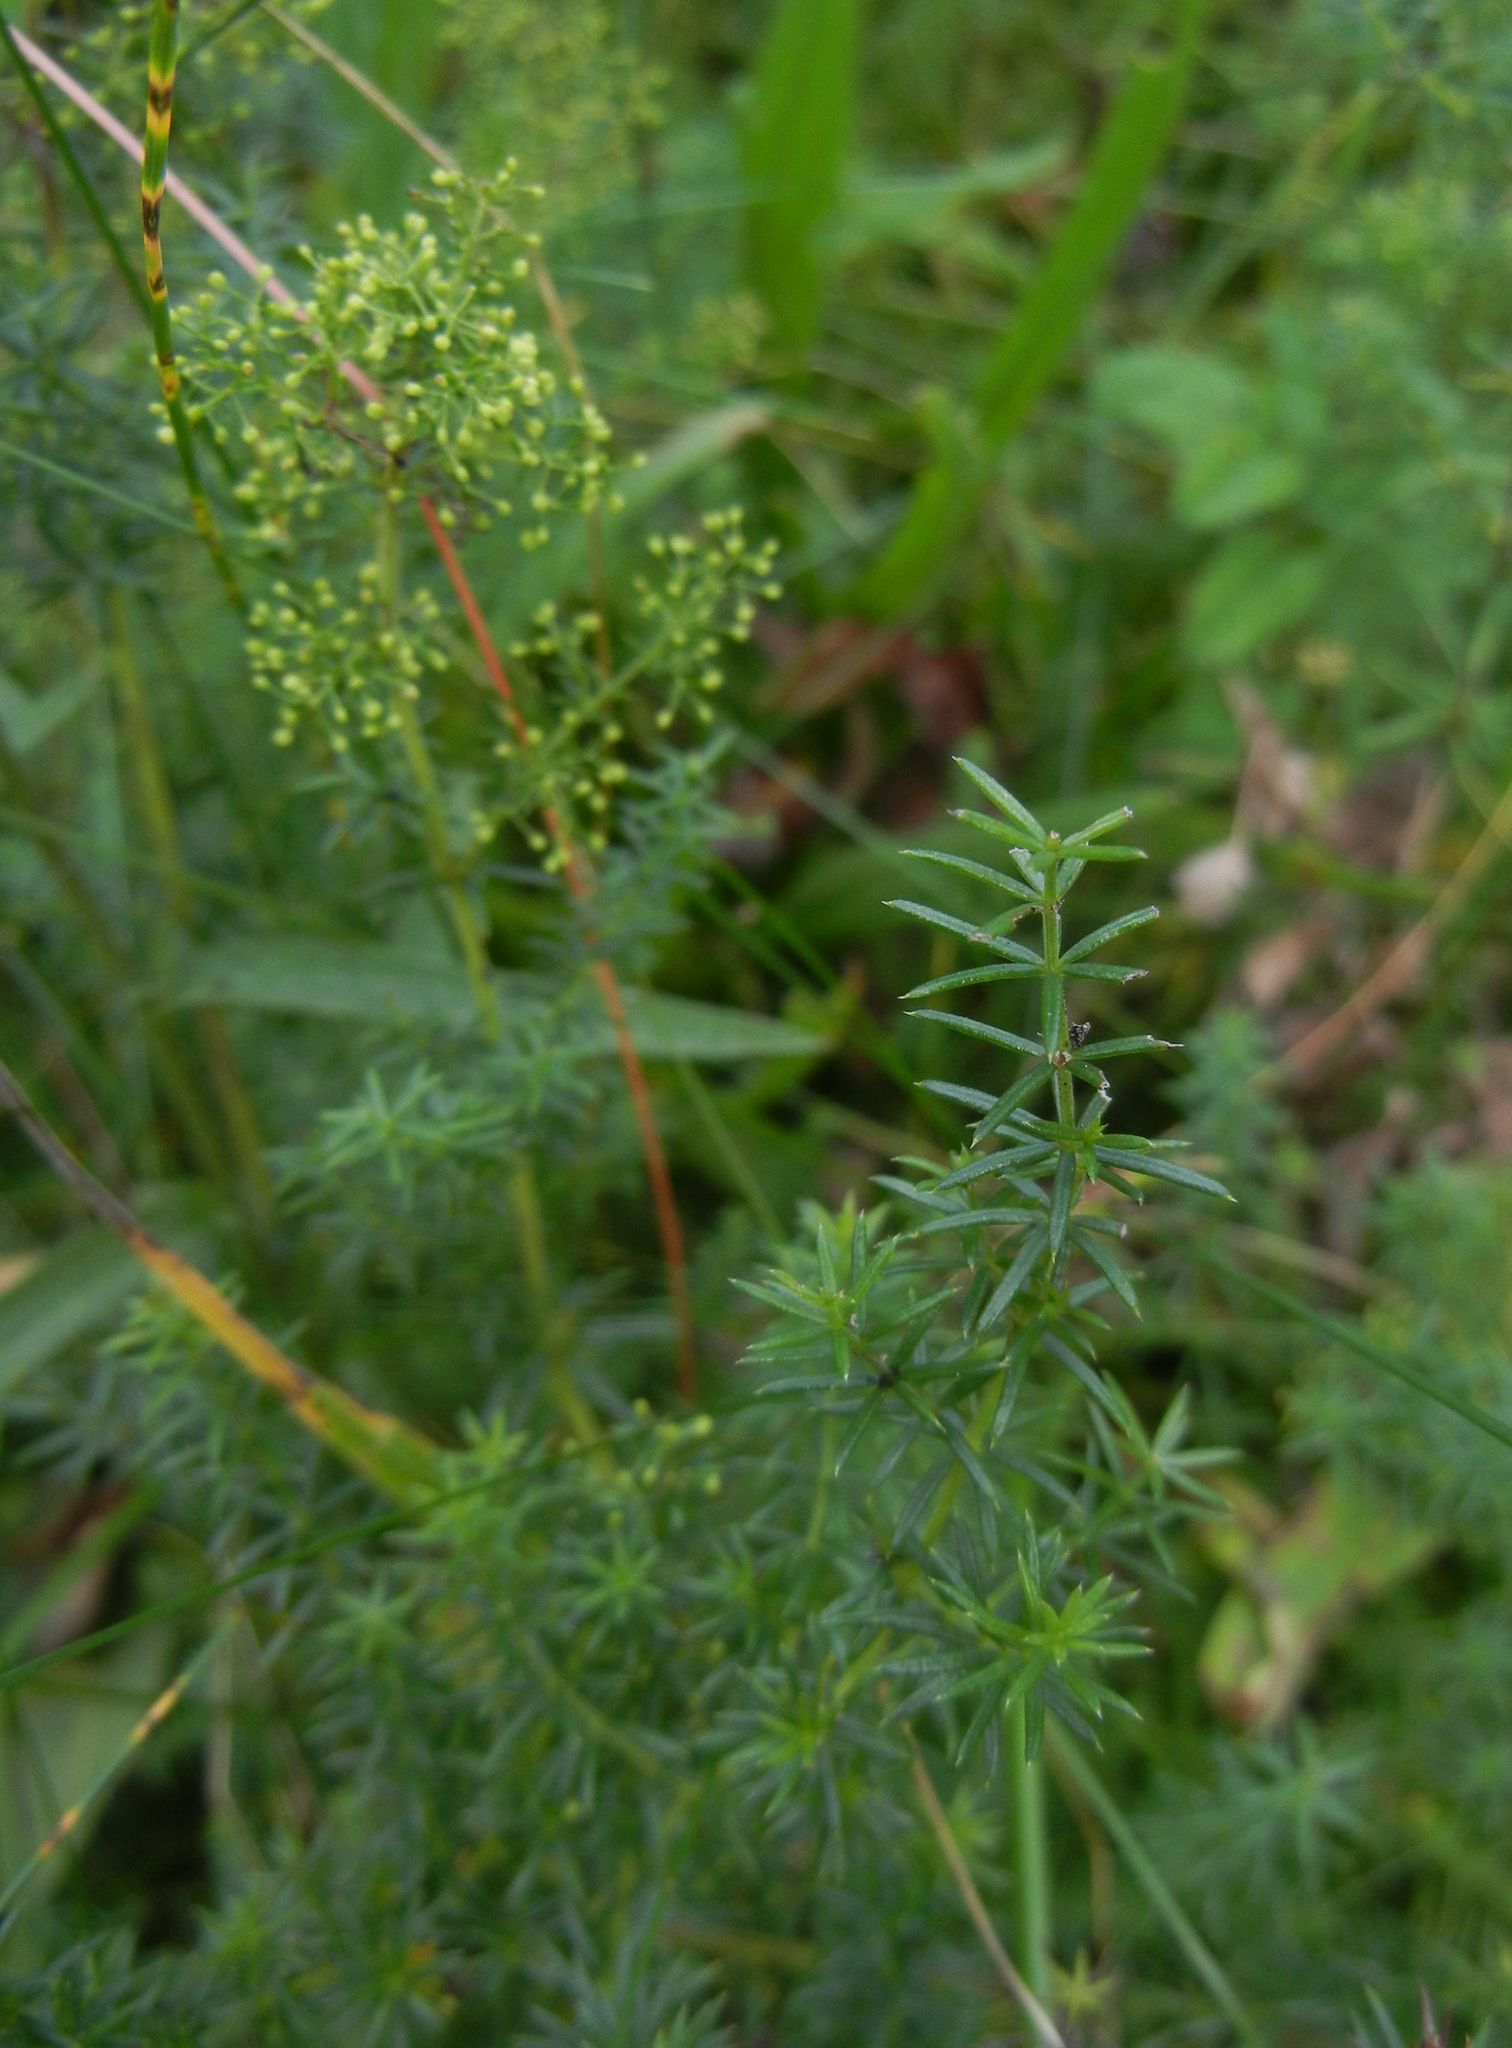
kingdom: Plantae
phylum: Tracheophyta
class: Magnoliopsida
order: Gentianales
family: Rubiaceae
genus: Galium
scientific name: Galium verum
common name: Lady's bedstraw
